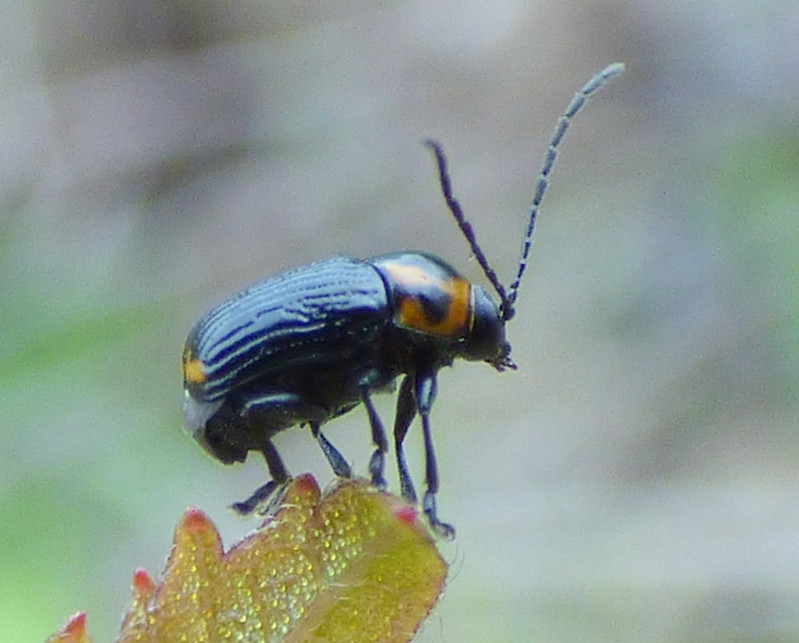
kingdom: Animalia
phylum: Arthropoda
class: Insecta
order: Coleoptera
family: Chrysomelidae
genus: Bassareus
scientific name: Bassareus lituratus
